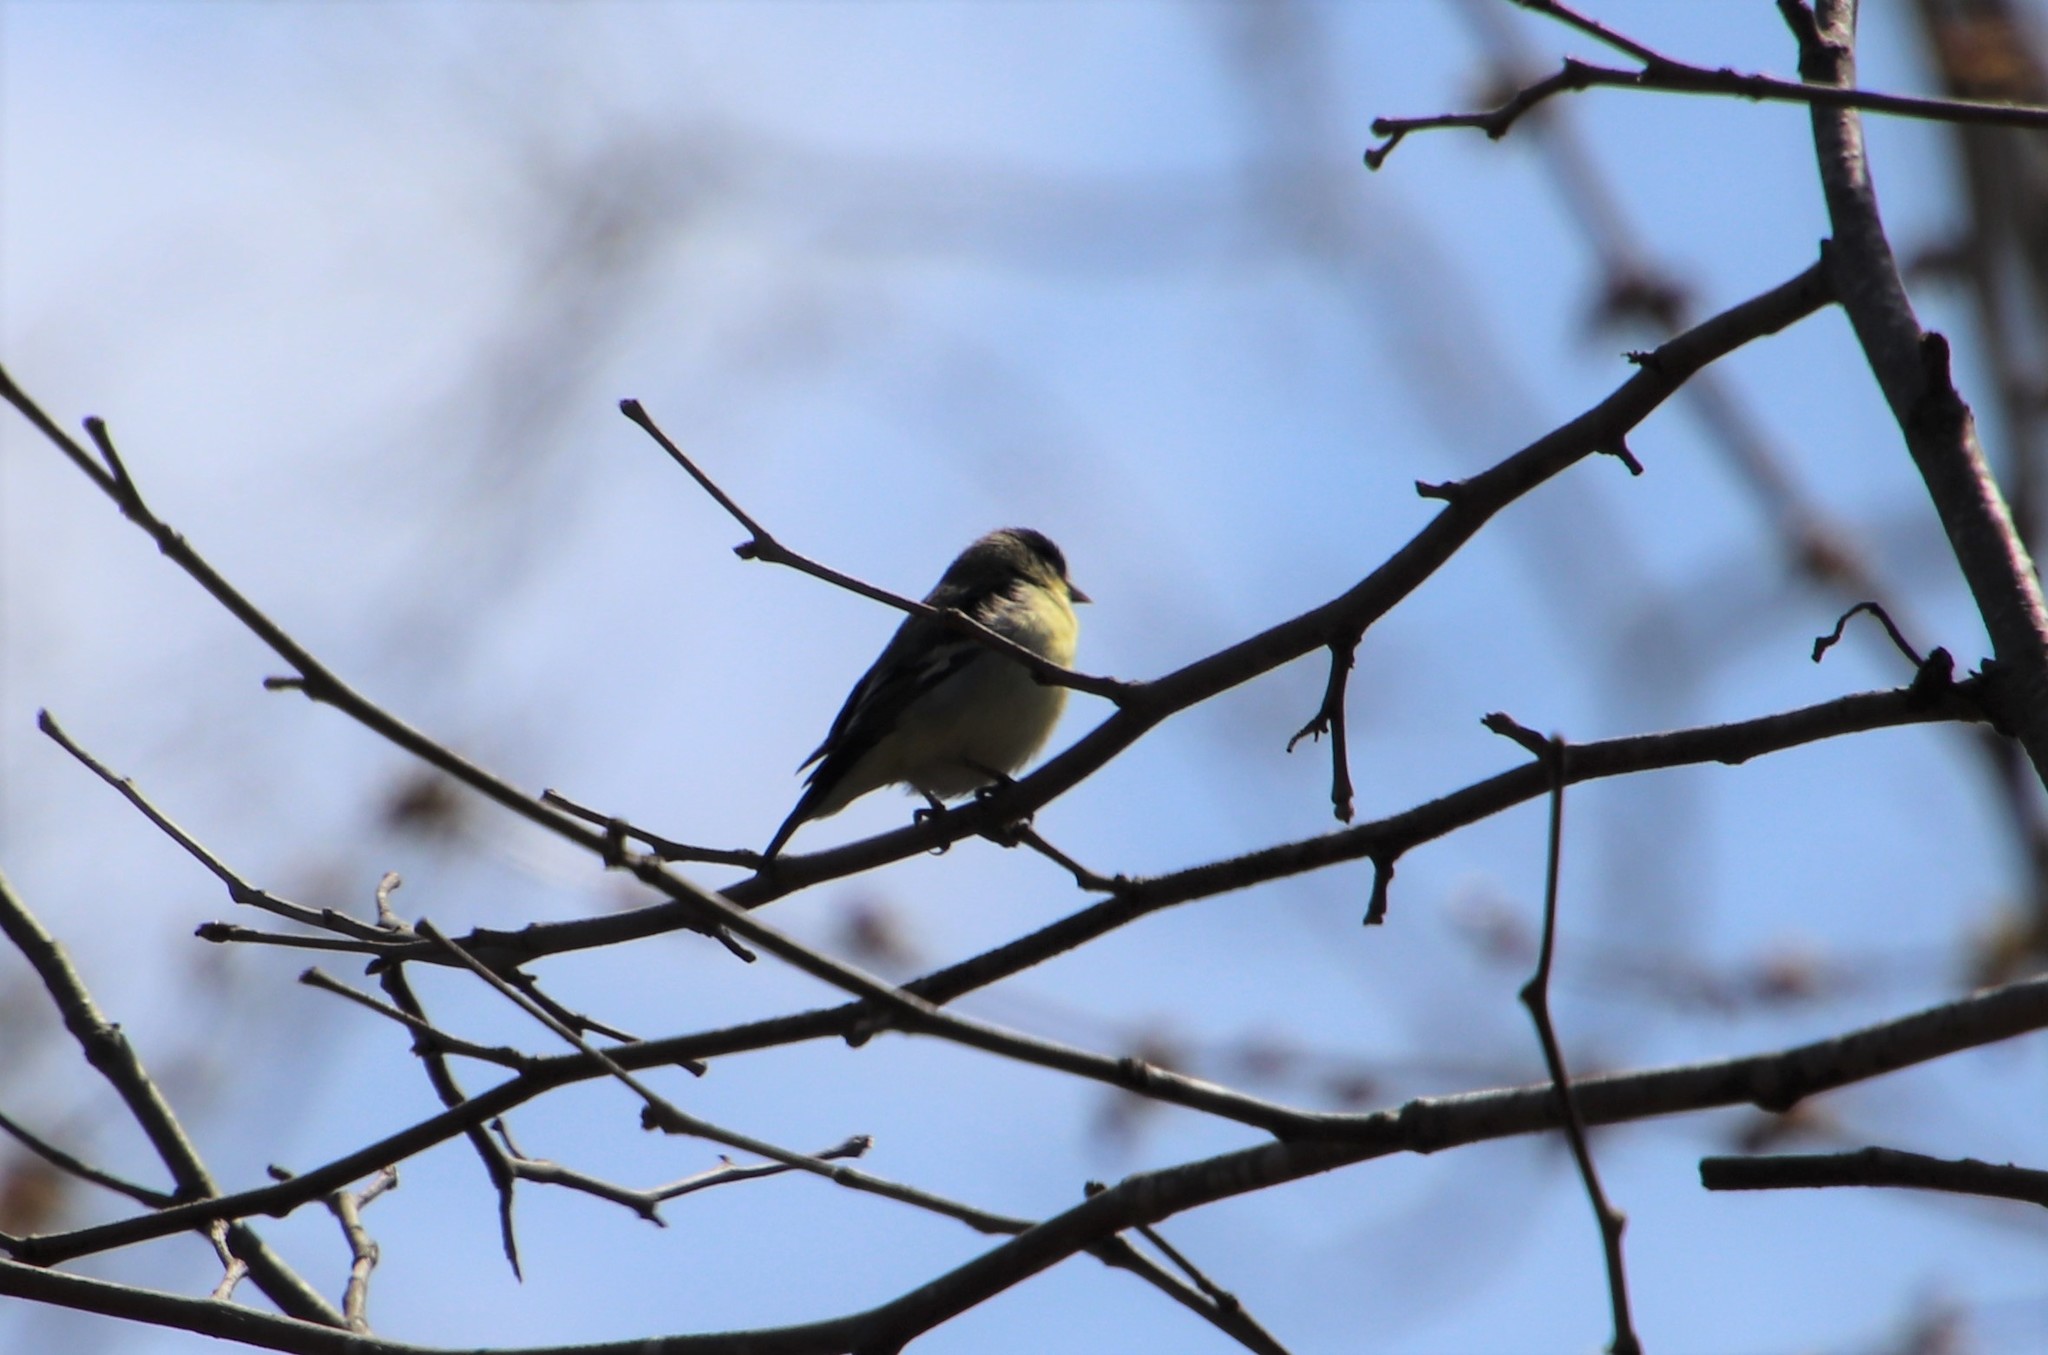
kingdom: Animalia
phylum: Chordata
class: Aves
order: Passeriformes
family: Fringillidae
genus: Spinus
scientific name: Spinus psaltria
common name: Lesser goldfinch
